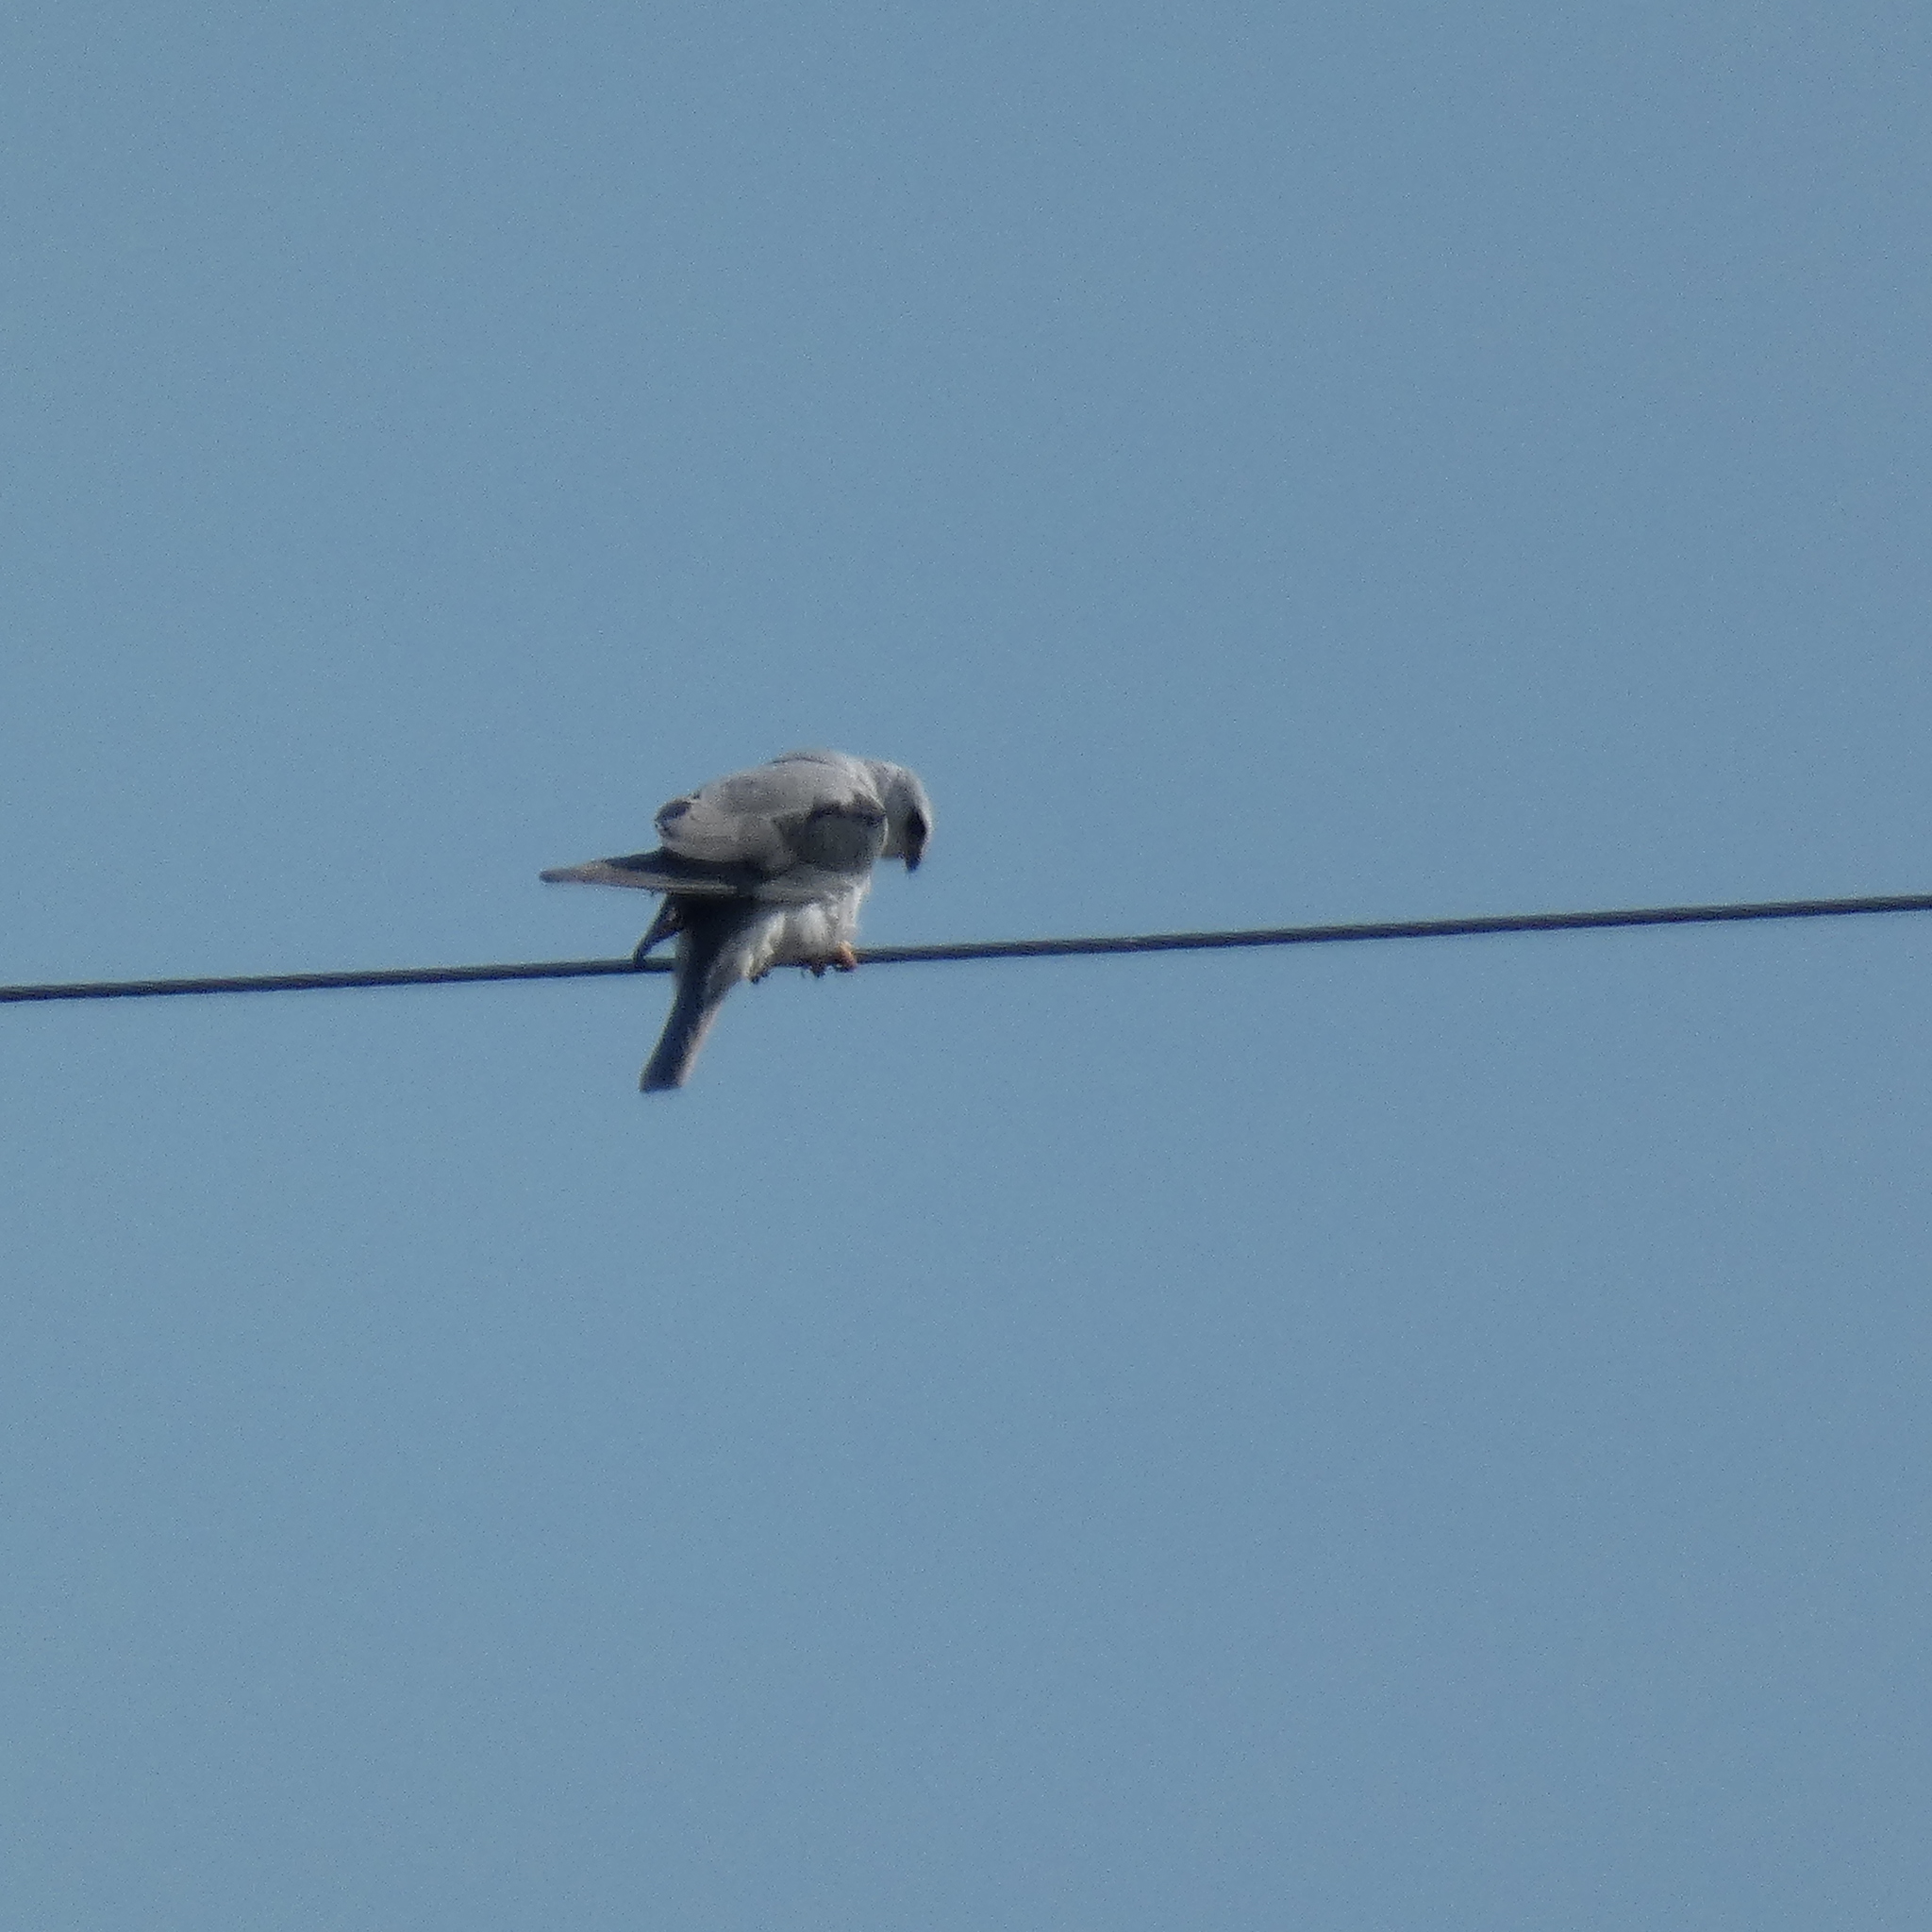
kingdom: Animalia
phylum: Chordata
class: Aves
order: Accipitriformes
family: Accipitridae
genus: Elanus
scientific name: Elanus leucurus
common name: White-tailed kite
